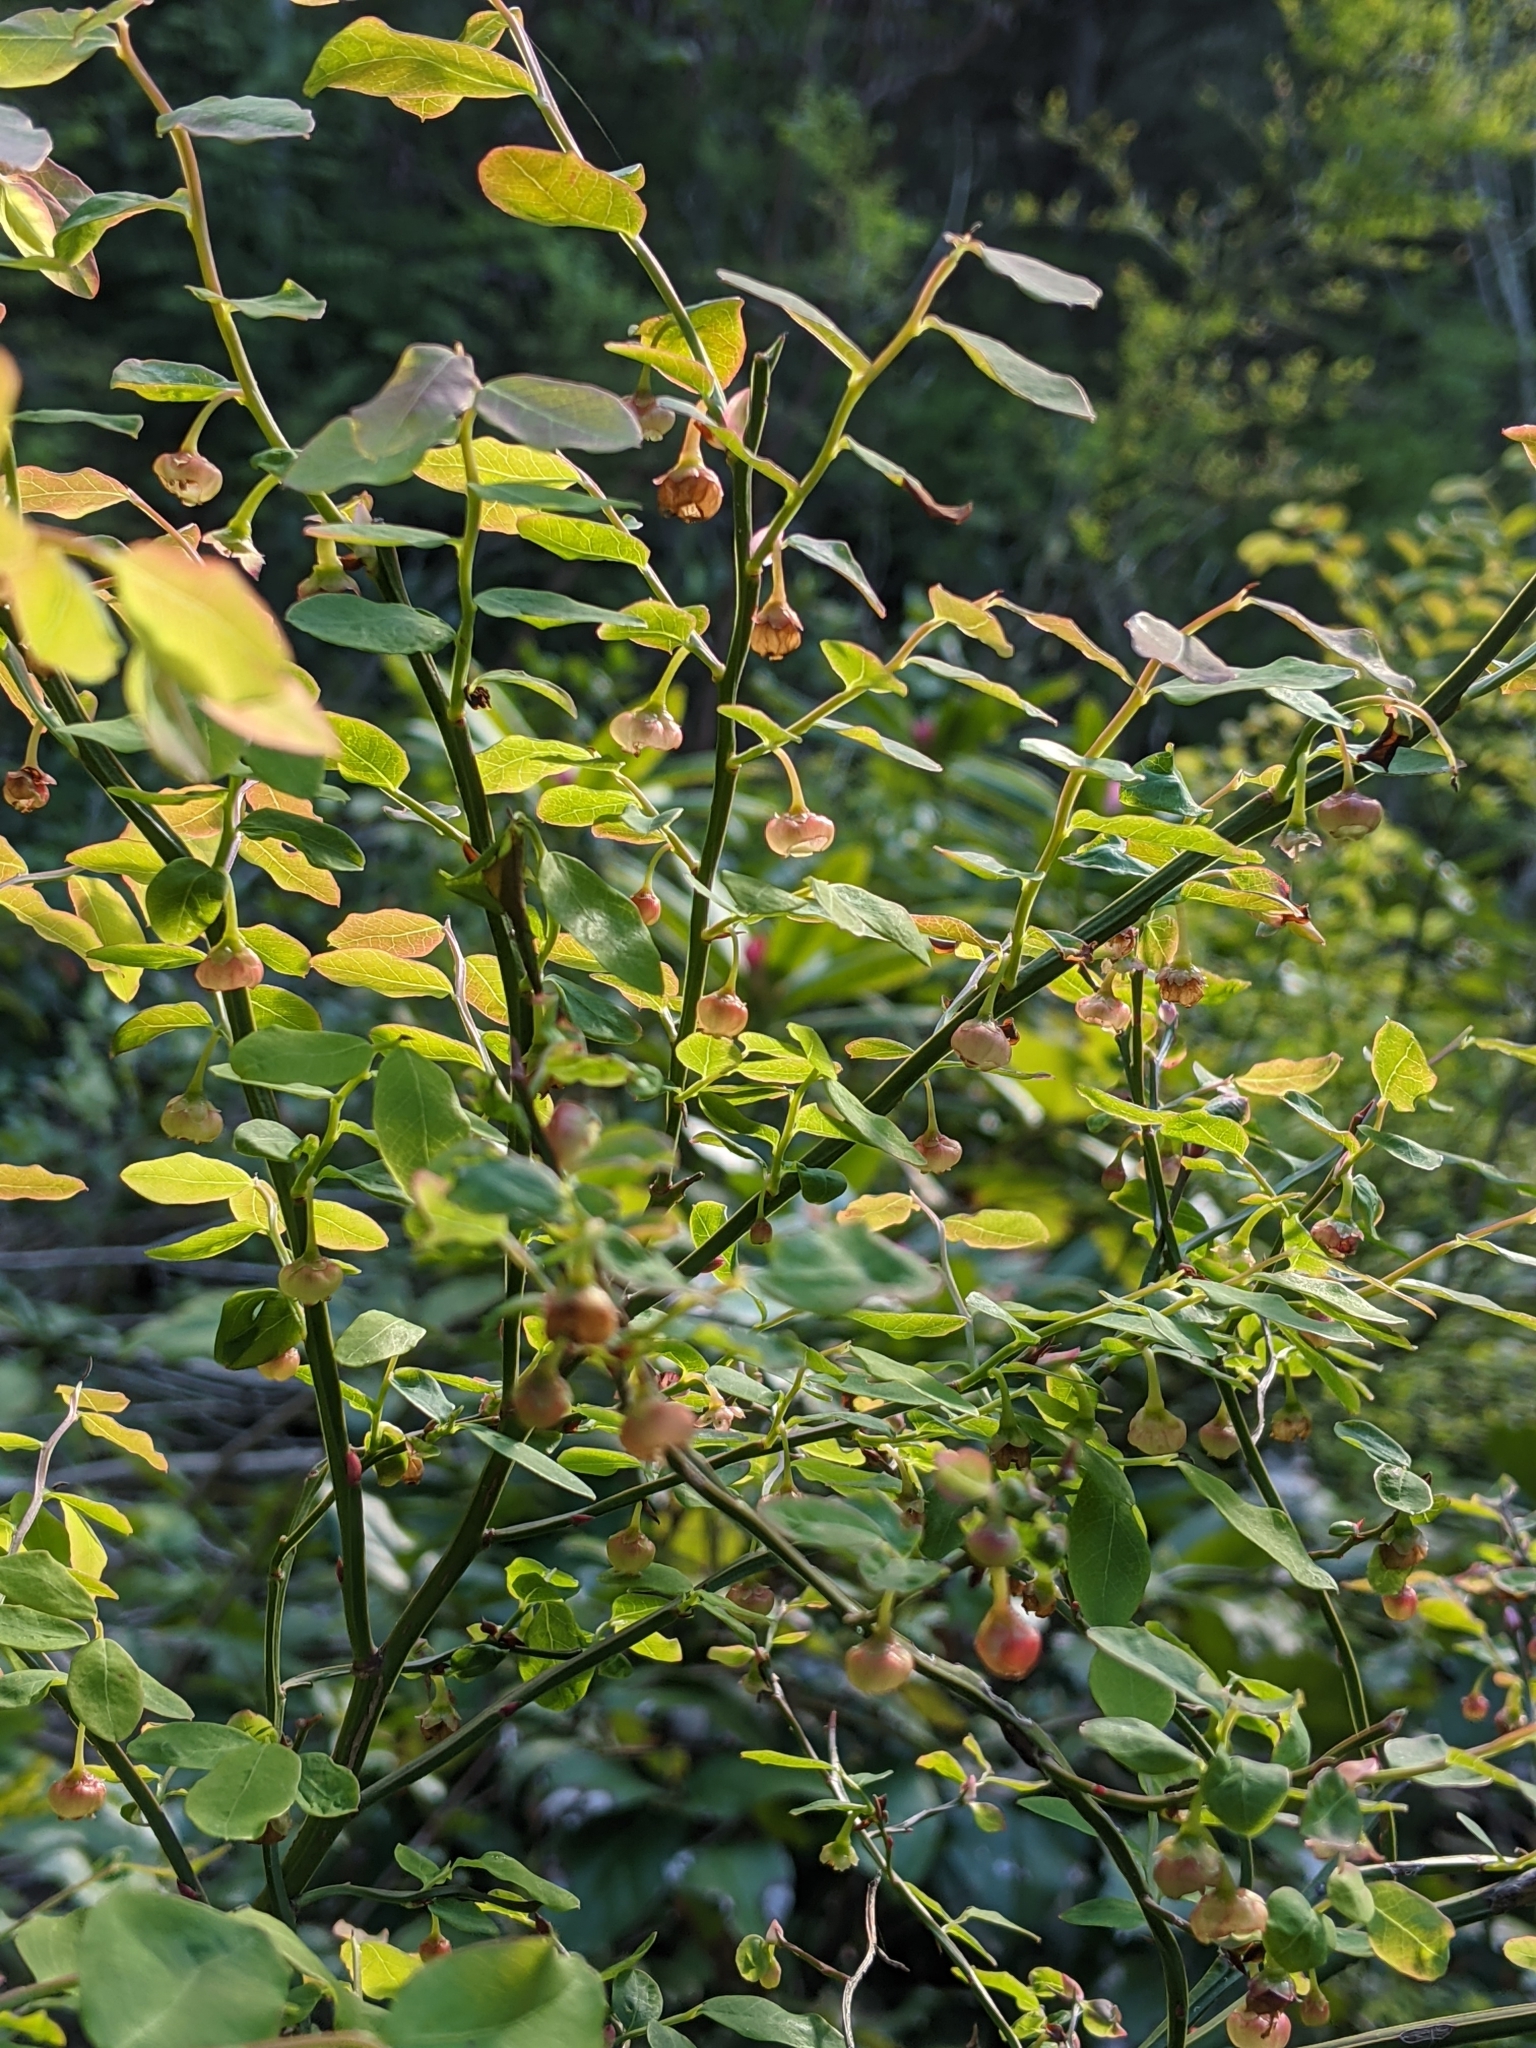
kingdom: Plantae
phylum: Tracheophyta
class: Magnoliopsida
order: Ericales
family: Ericaceae
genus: Vaccinium
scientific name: Vaccinium parvifolium
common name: Red-huckleberry
